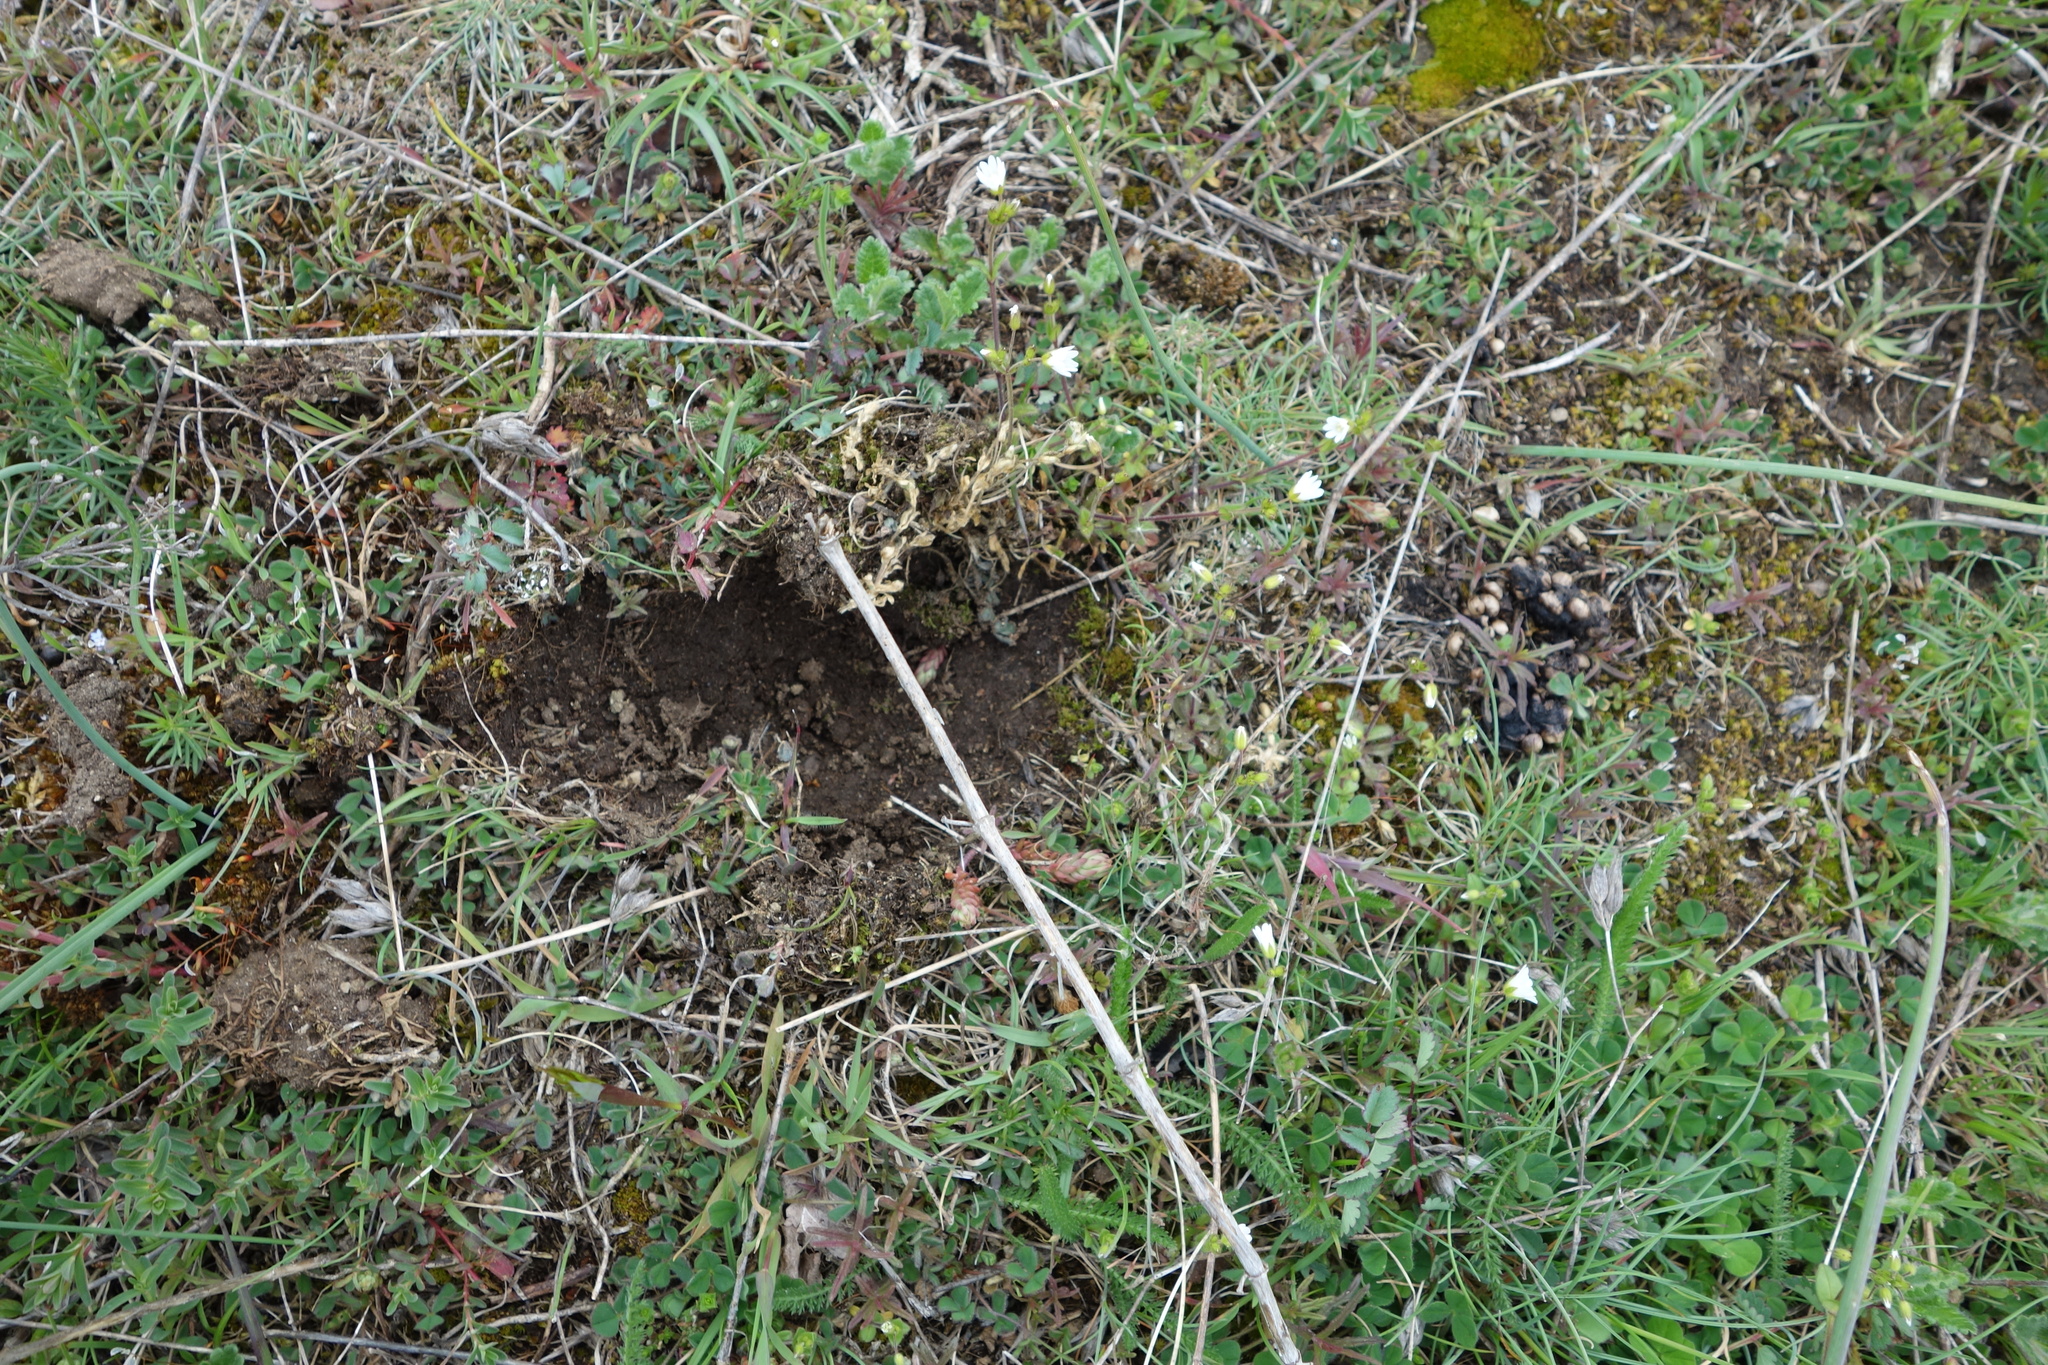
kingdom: Animalia
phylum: Chordata
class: Mammalia
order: Carnivora
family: Mustelidae
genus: Meles
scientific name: Meles meles
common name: Eurasian badger
